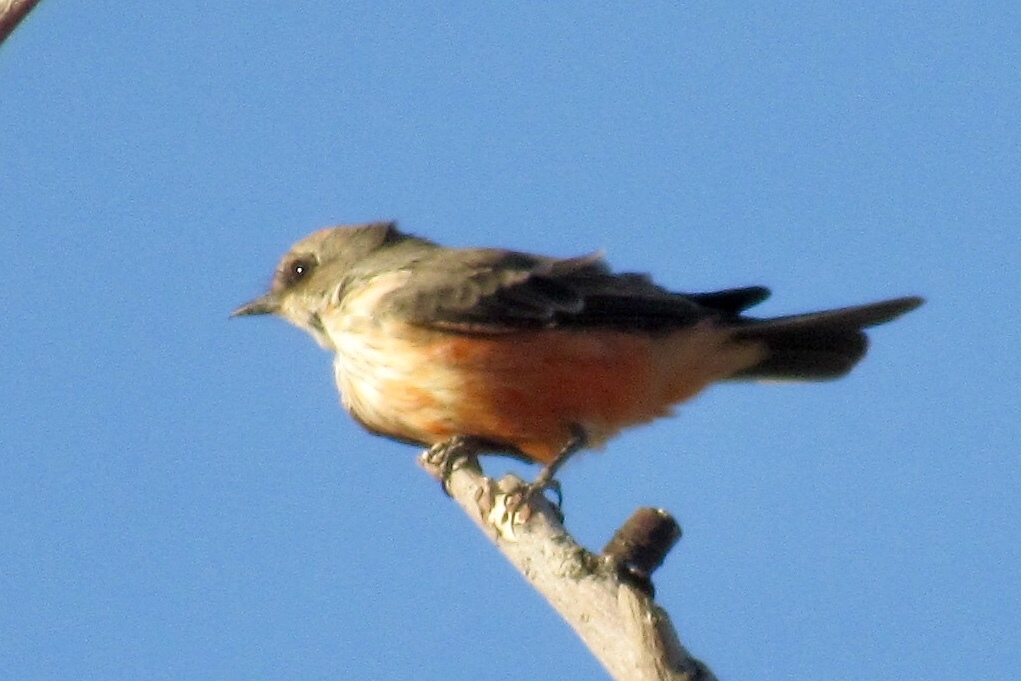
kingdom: Animalia
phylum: Chordata
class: Aves
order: Passeriformes
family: Tyrannidae
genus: Pyrocephalus
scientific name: Pyrocephalus rubinus
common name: Vermilion flycatcher
